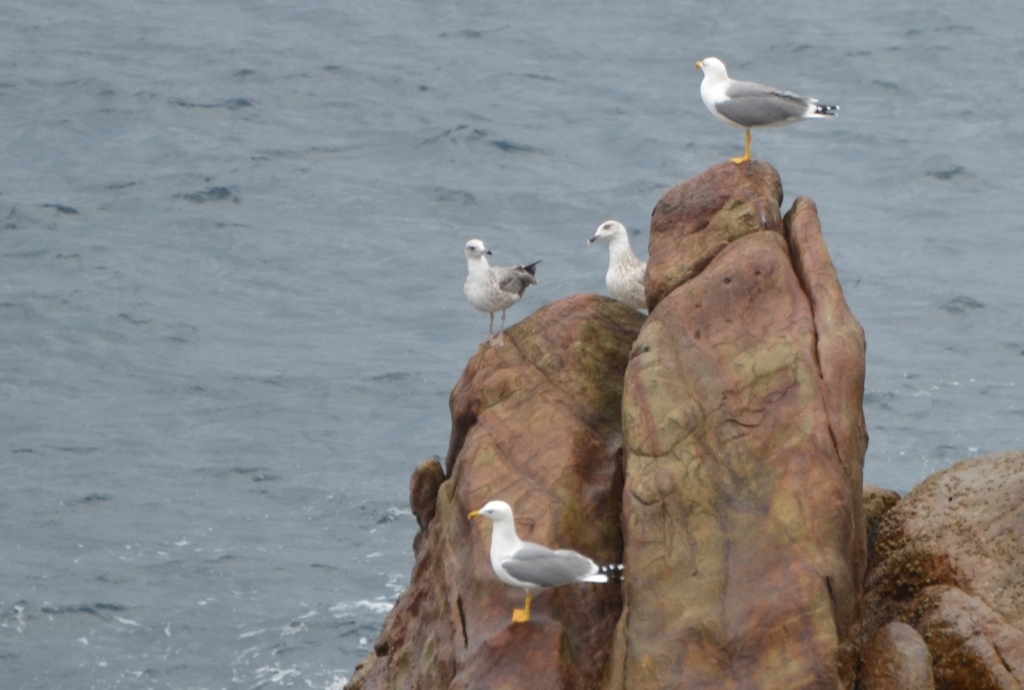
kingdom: Animalia
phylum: Chordata
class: Aves
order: Charadriiformes
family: Laridae
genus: Larus
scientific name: Larus michahellis
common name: Yellow-legged gull
